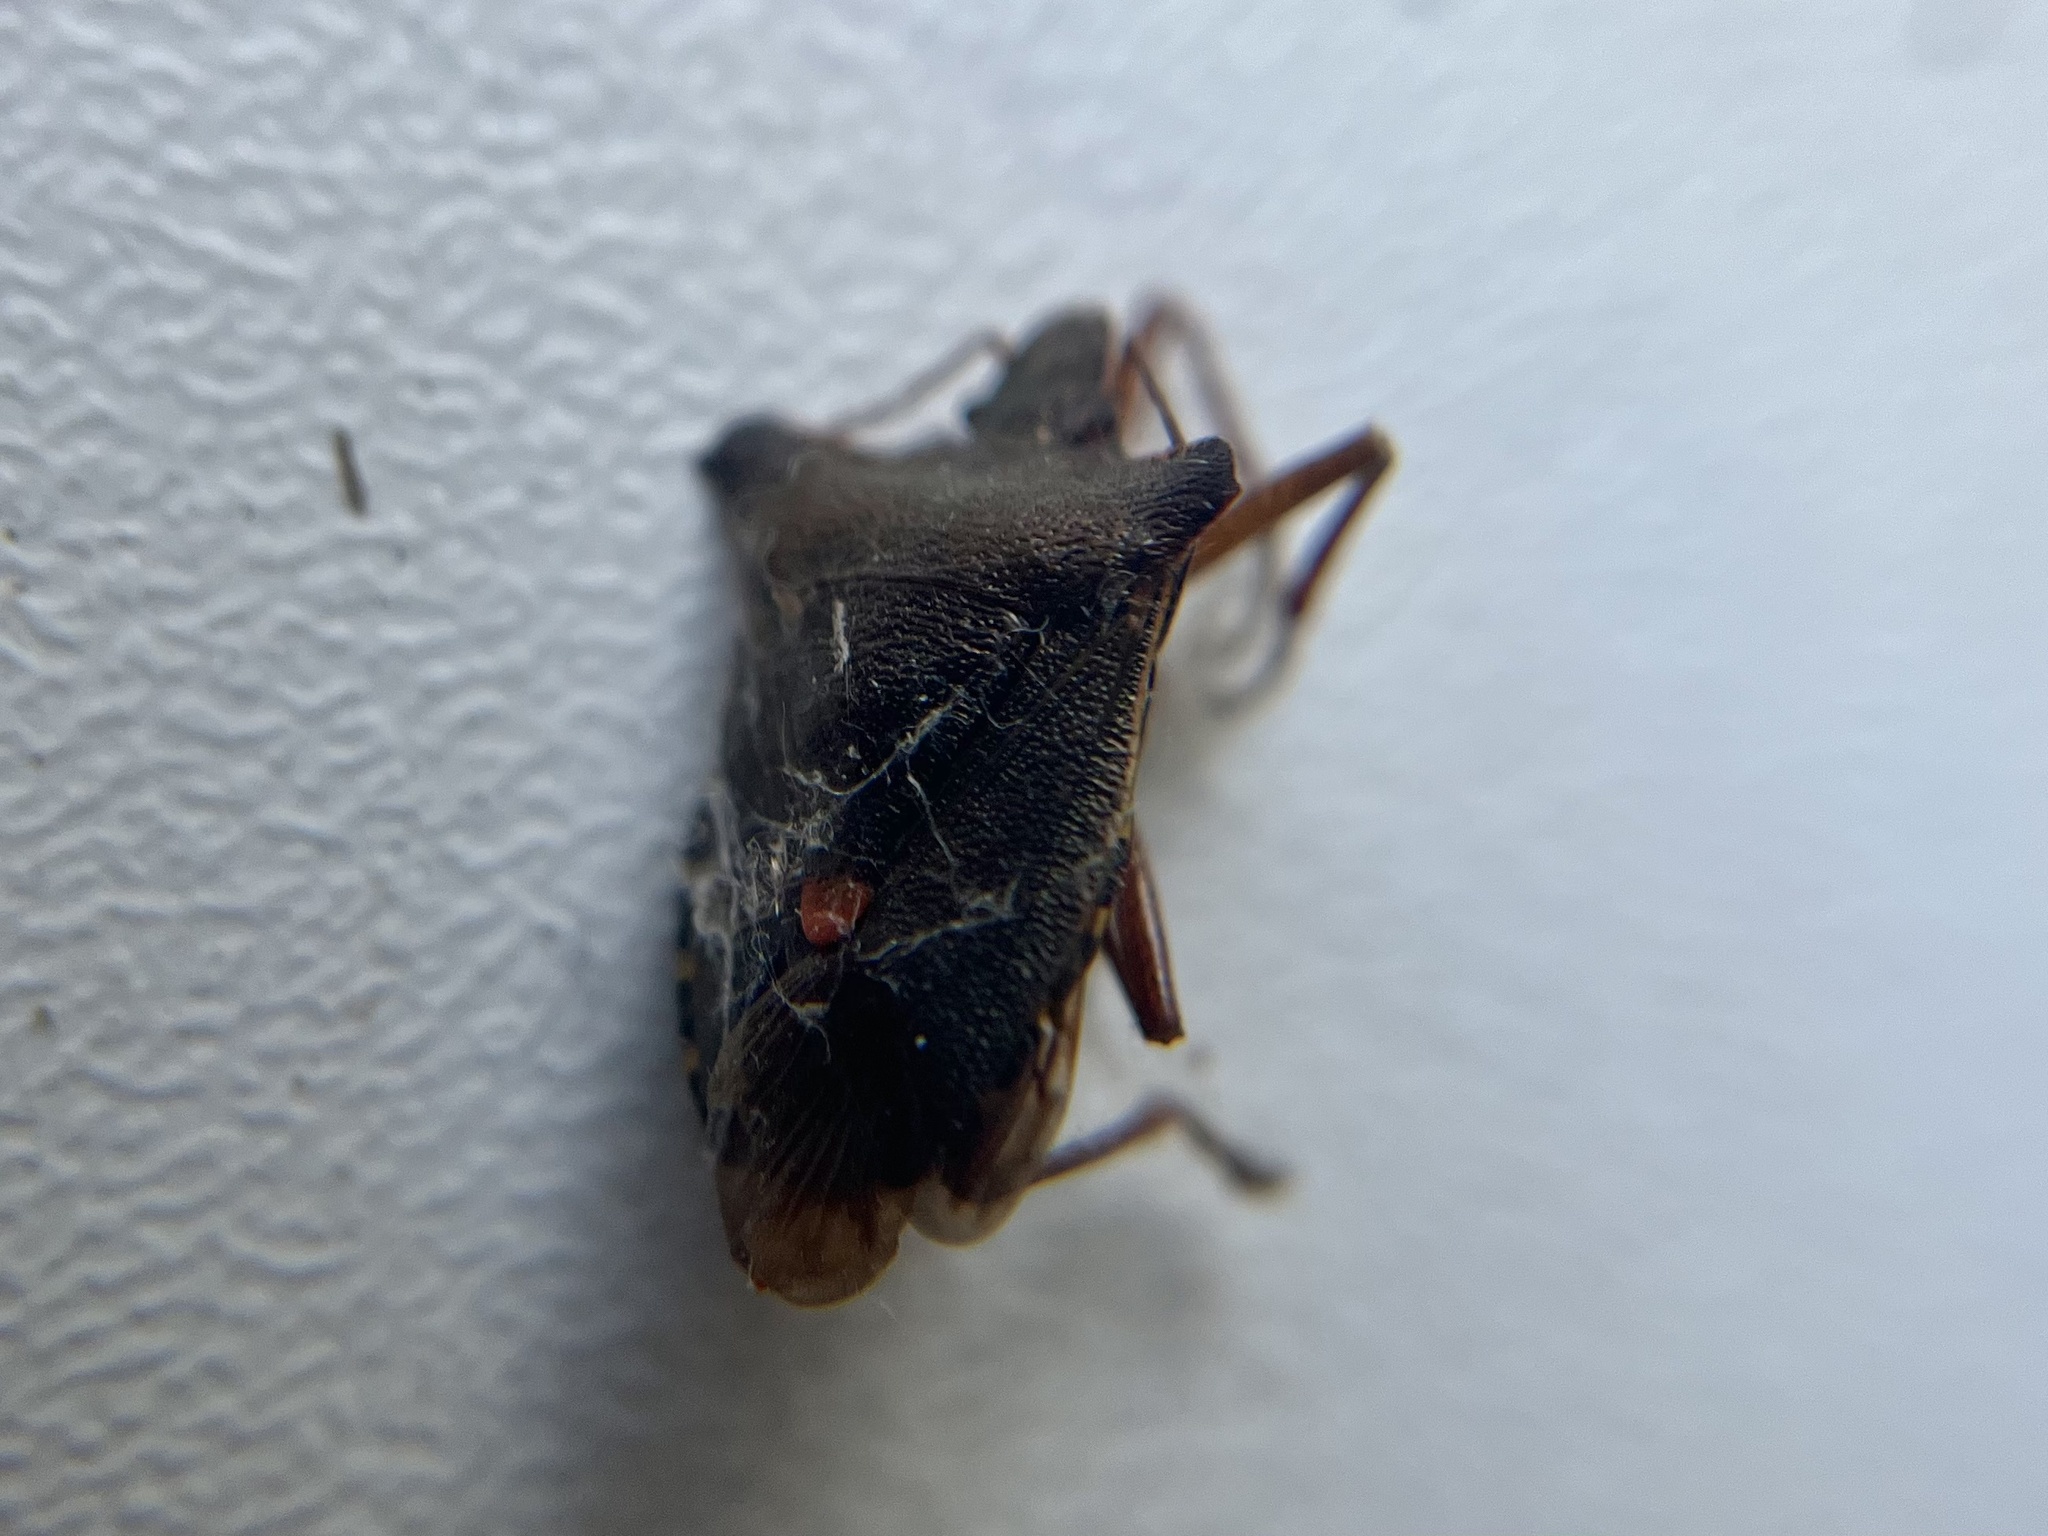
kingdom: Animalia
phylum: Arthropoda
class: Insecta
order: Hemiptera
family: Pentatomidae
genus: Pentatoma
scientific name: Pentatoma rufipes
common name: Forest bug
